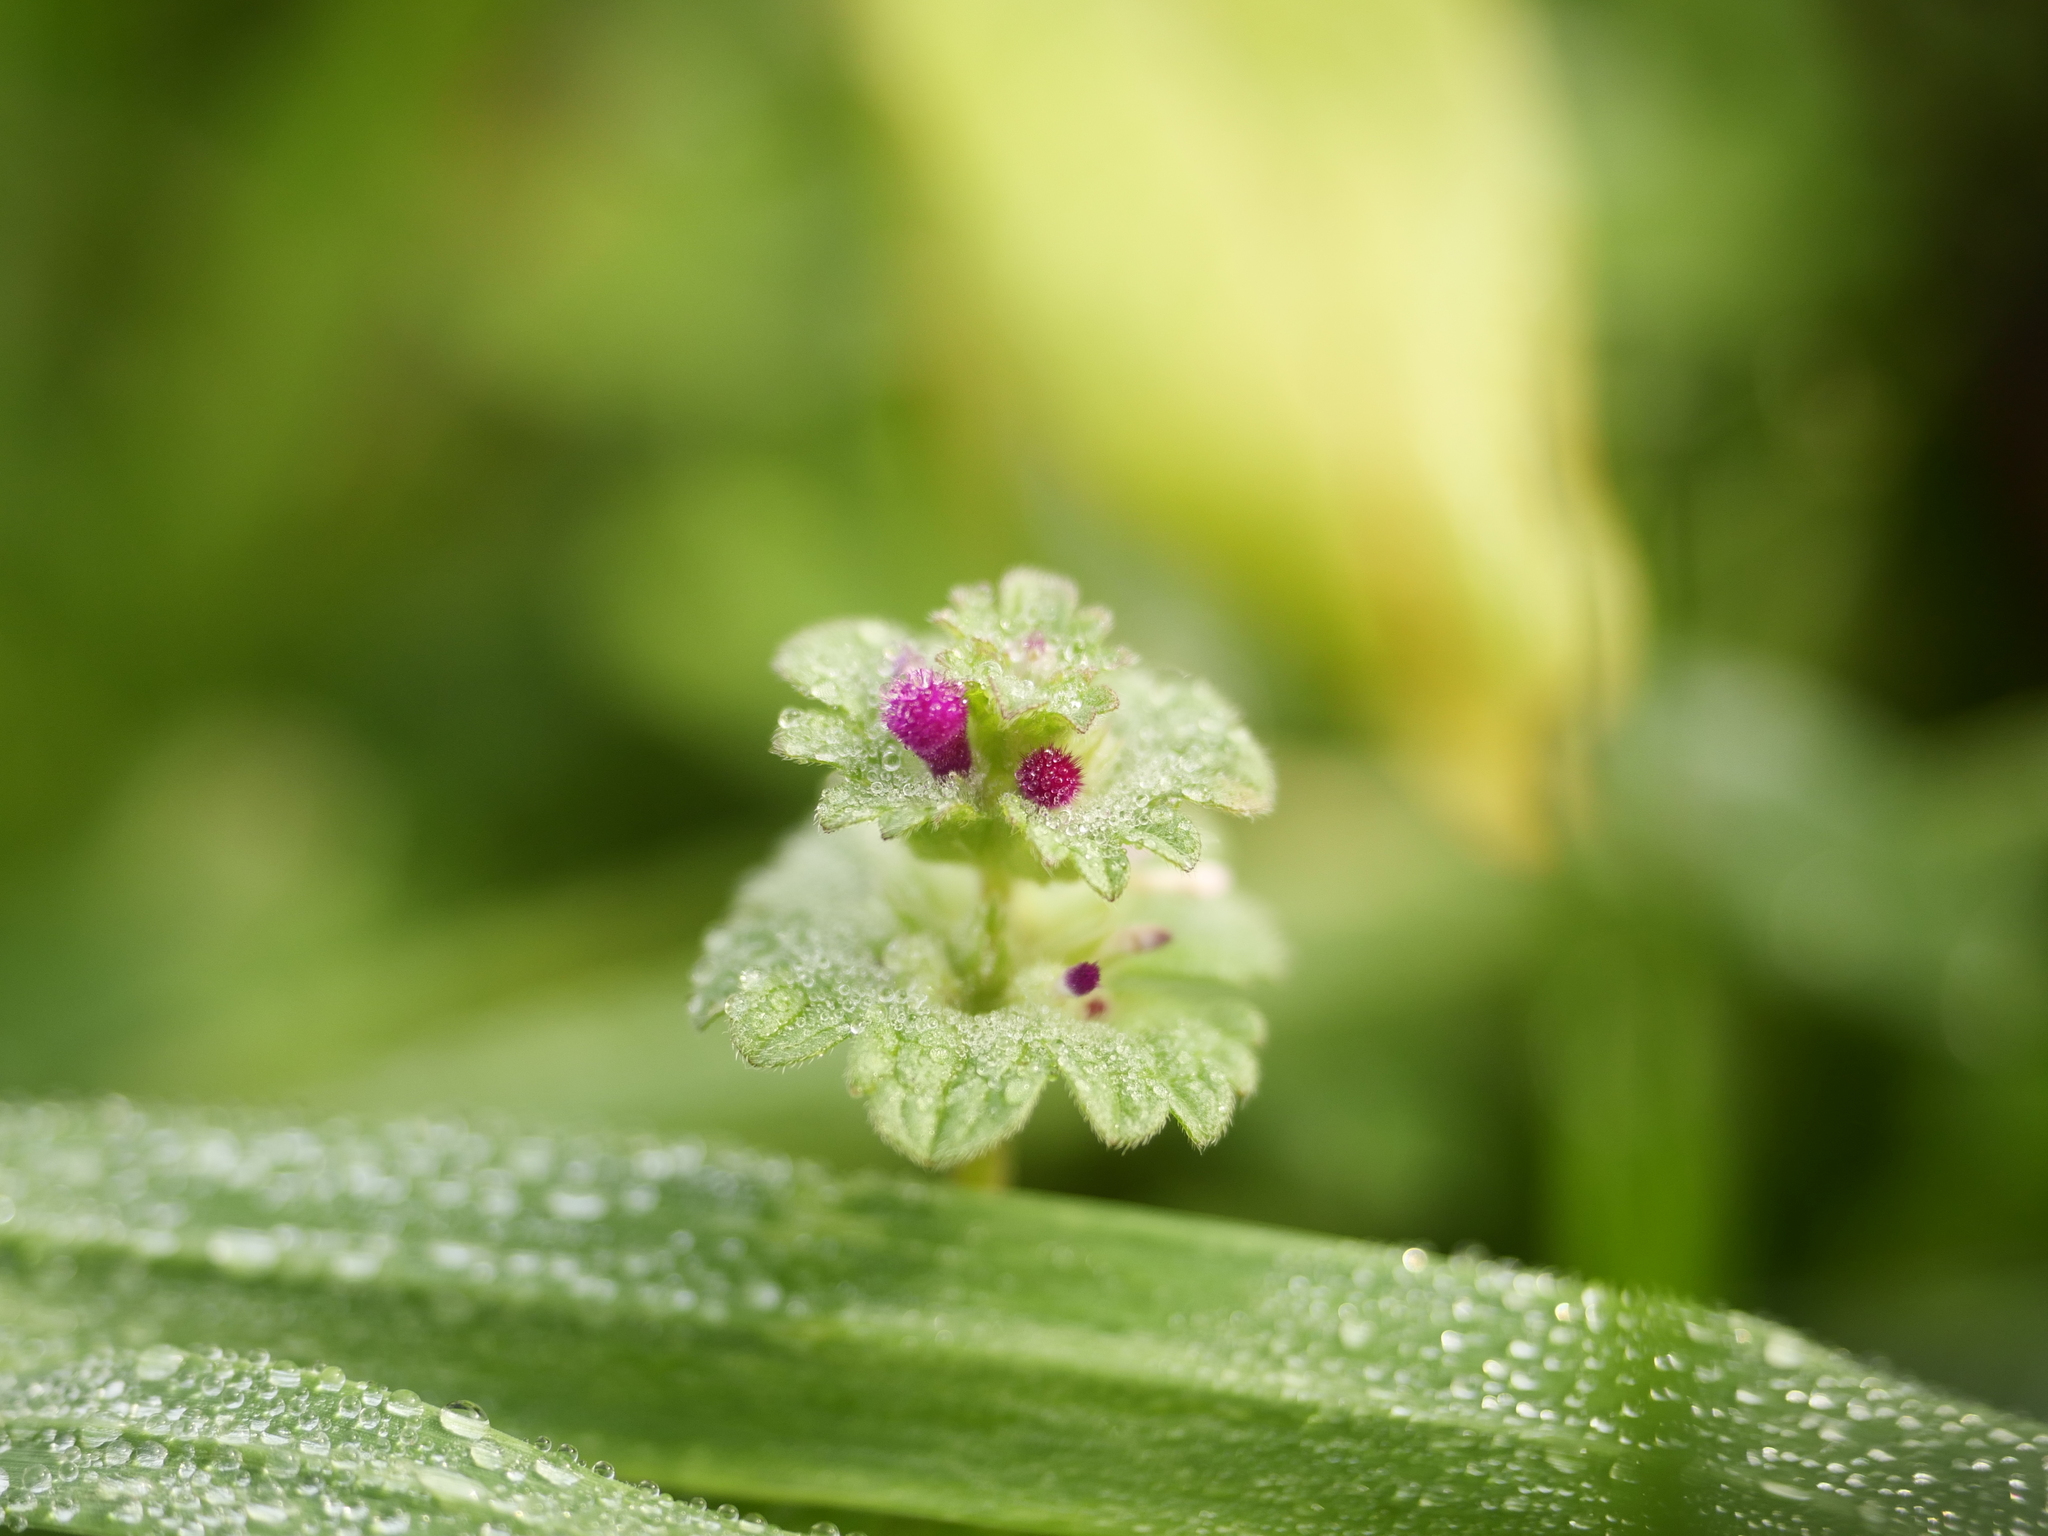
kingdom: Plantae
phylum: Tracheophyta
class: Magnoliopsida
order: Lamiales
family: Lamiaceae
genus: Lamium
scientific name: Lamium amplexicaule
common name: Henbit dead-nettle
